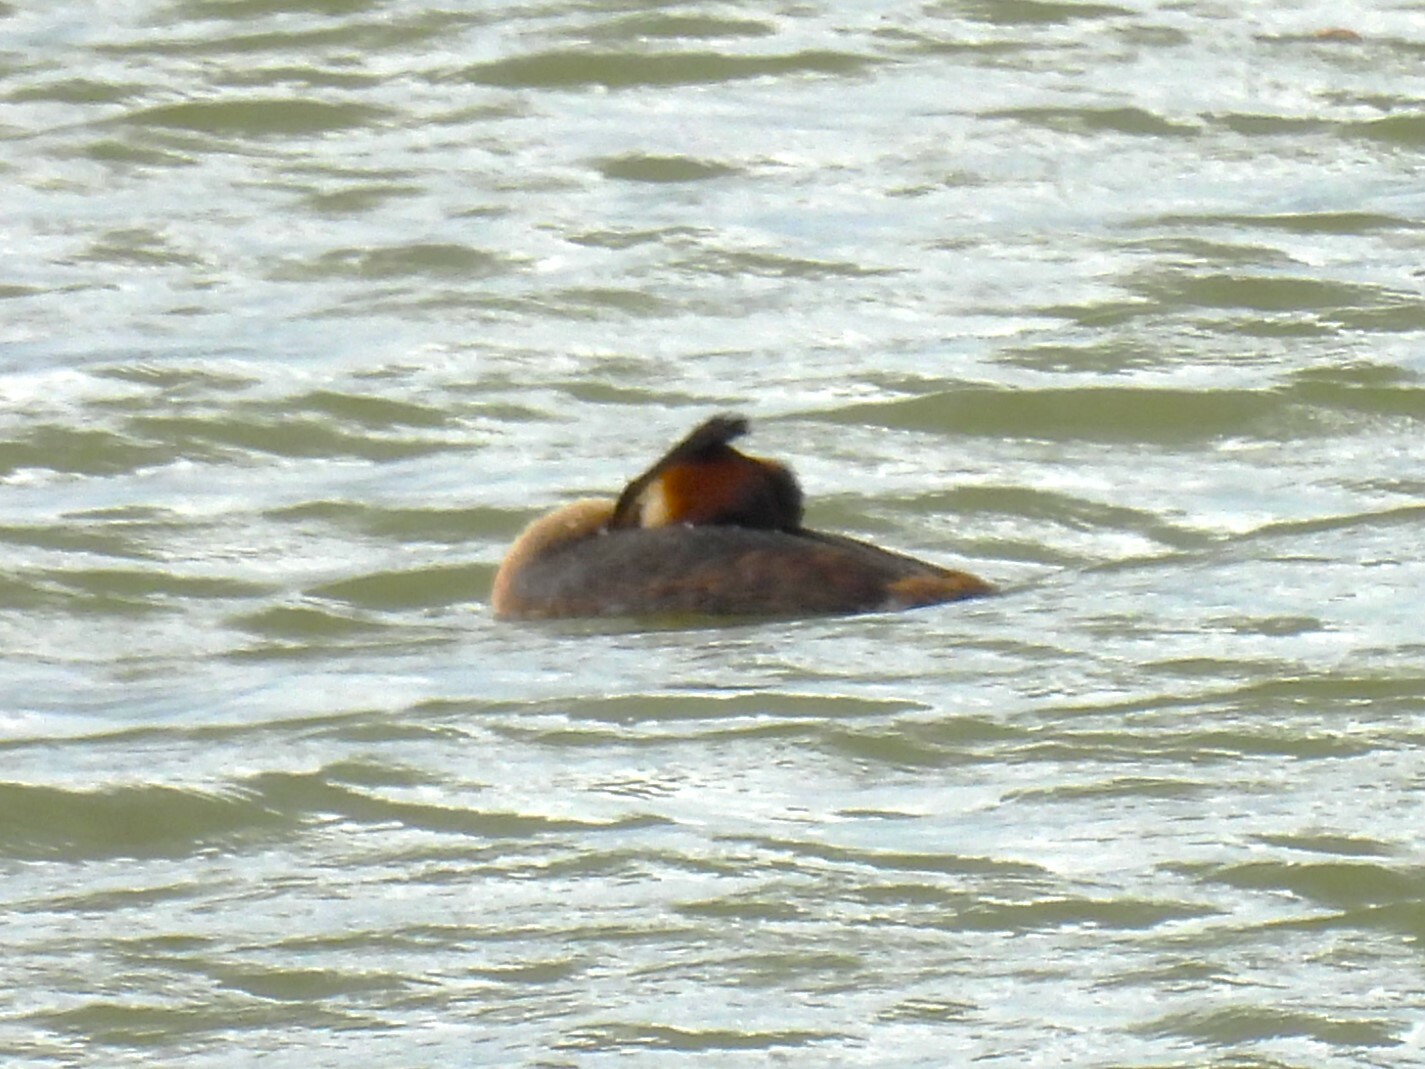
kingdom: Animalia
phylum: Chordata
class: Aves
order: Podicipediformes
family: Podicipedidae
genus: Podiceps
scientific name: Podiceps cristatus
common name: Great crested grebe
